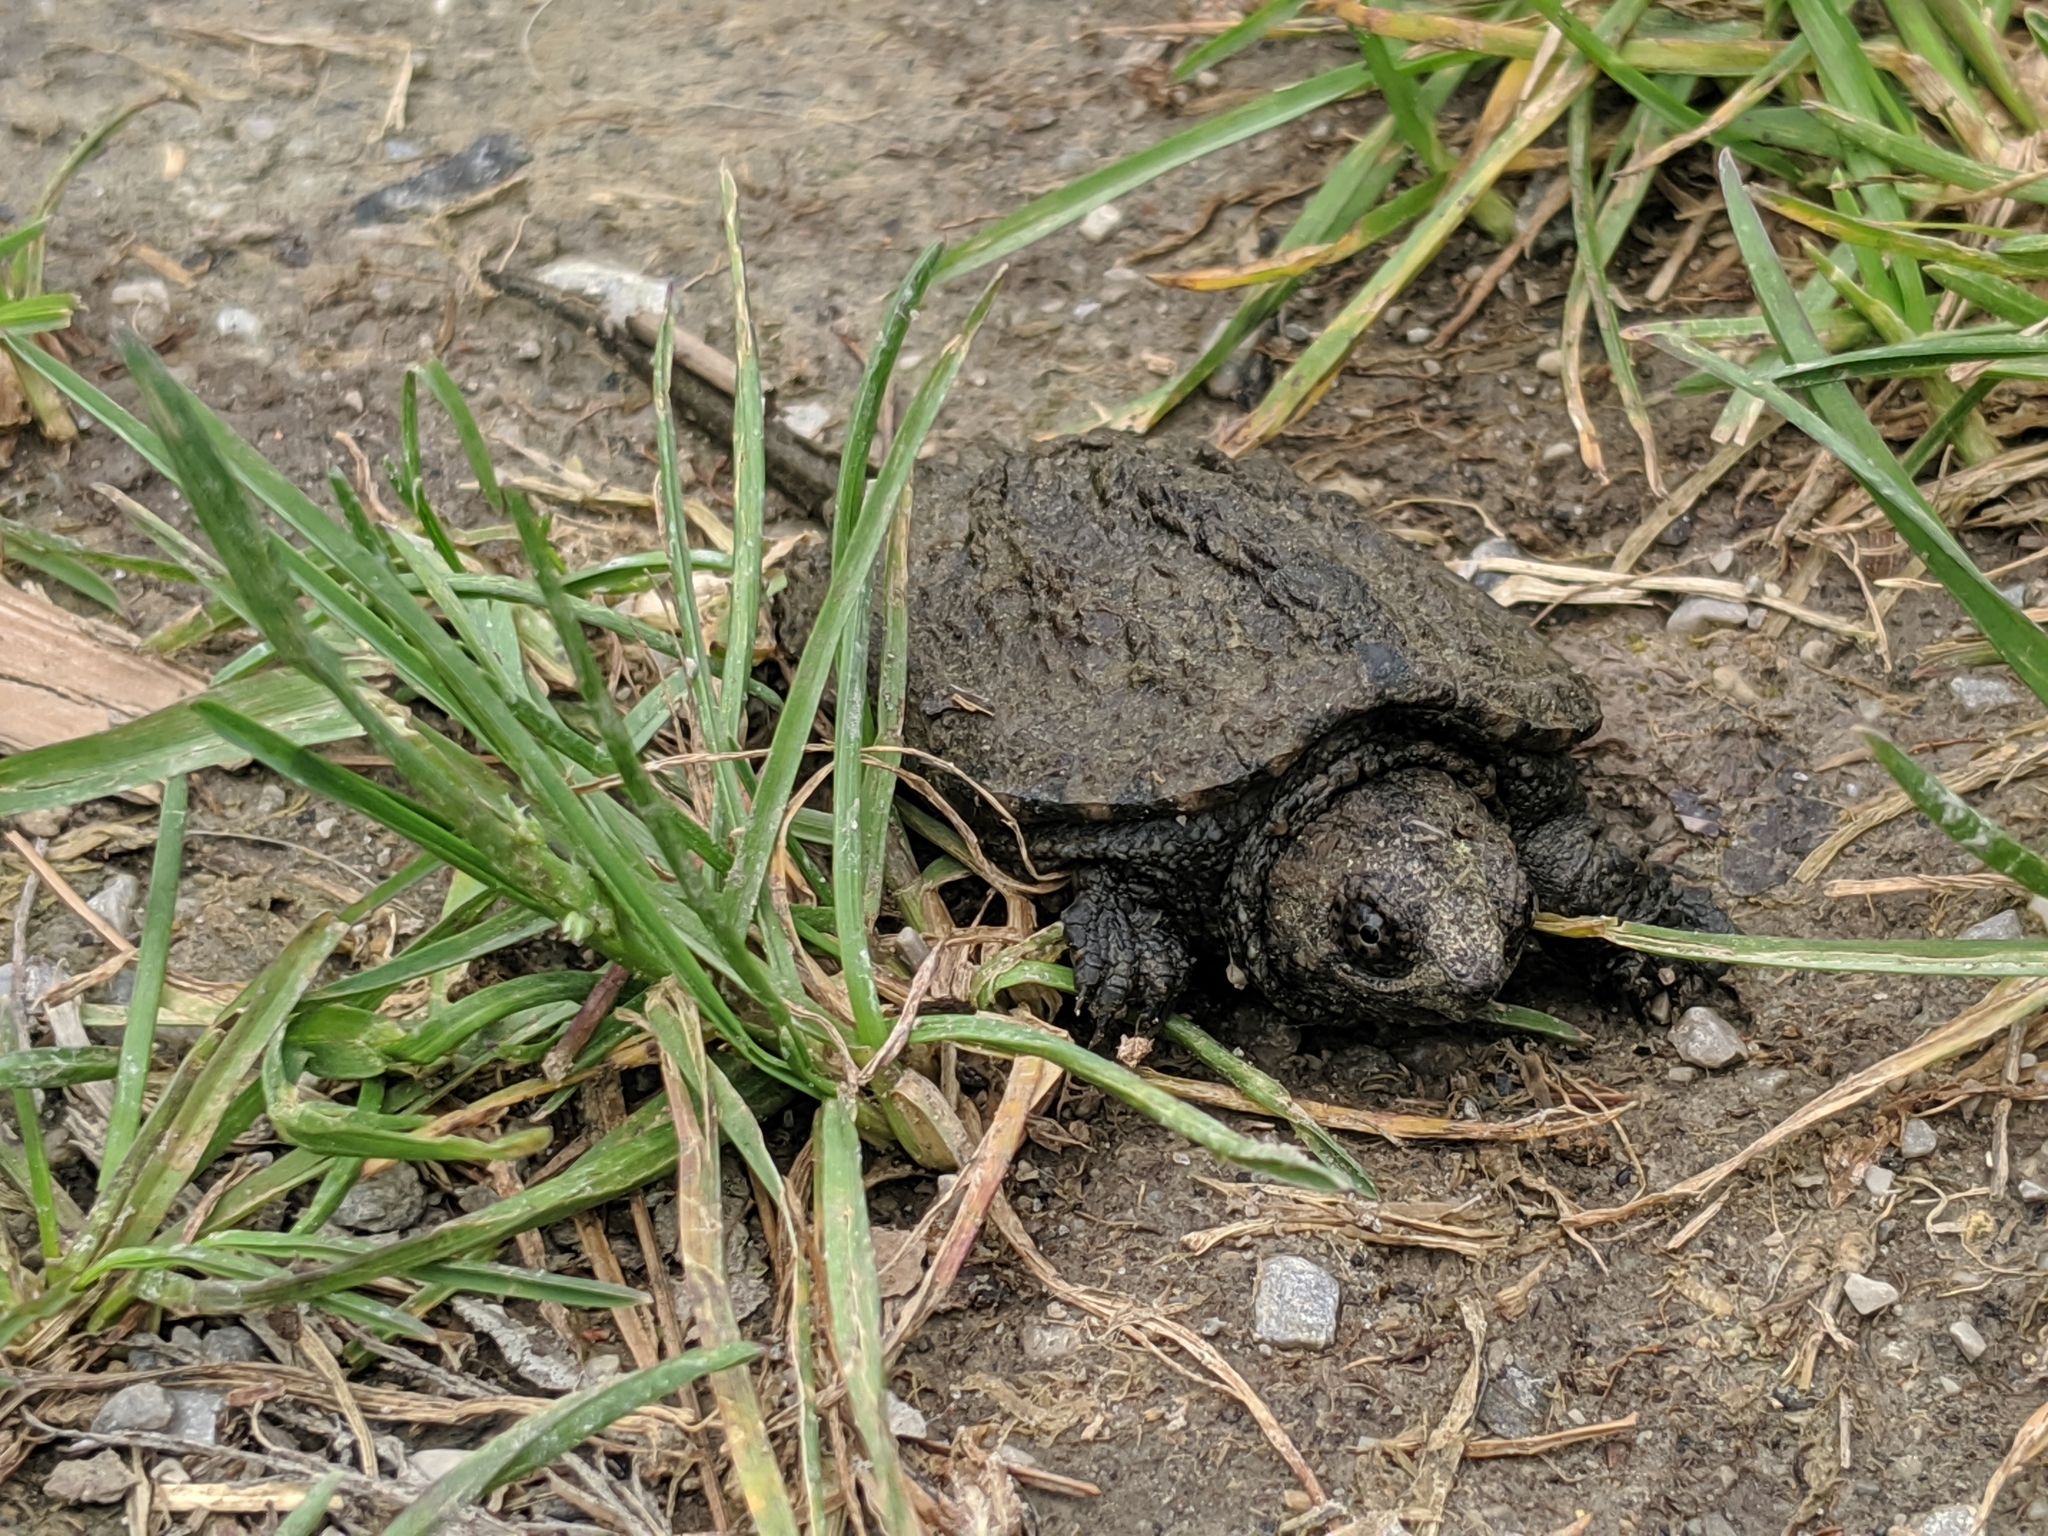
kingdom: Animalia
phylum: Chordata
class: Testudines
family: Chelydridae
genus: Chelydra
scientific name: Chelydra serpentina
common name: Common snapping turtle
